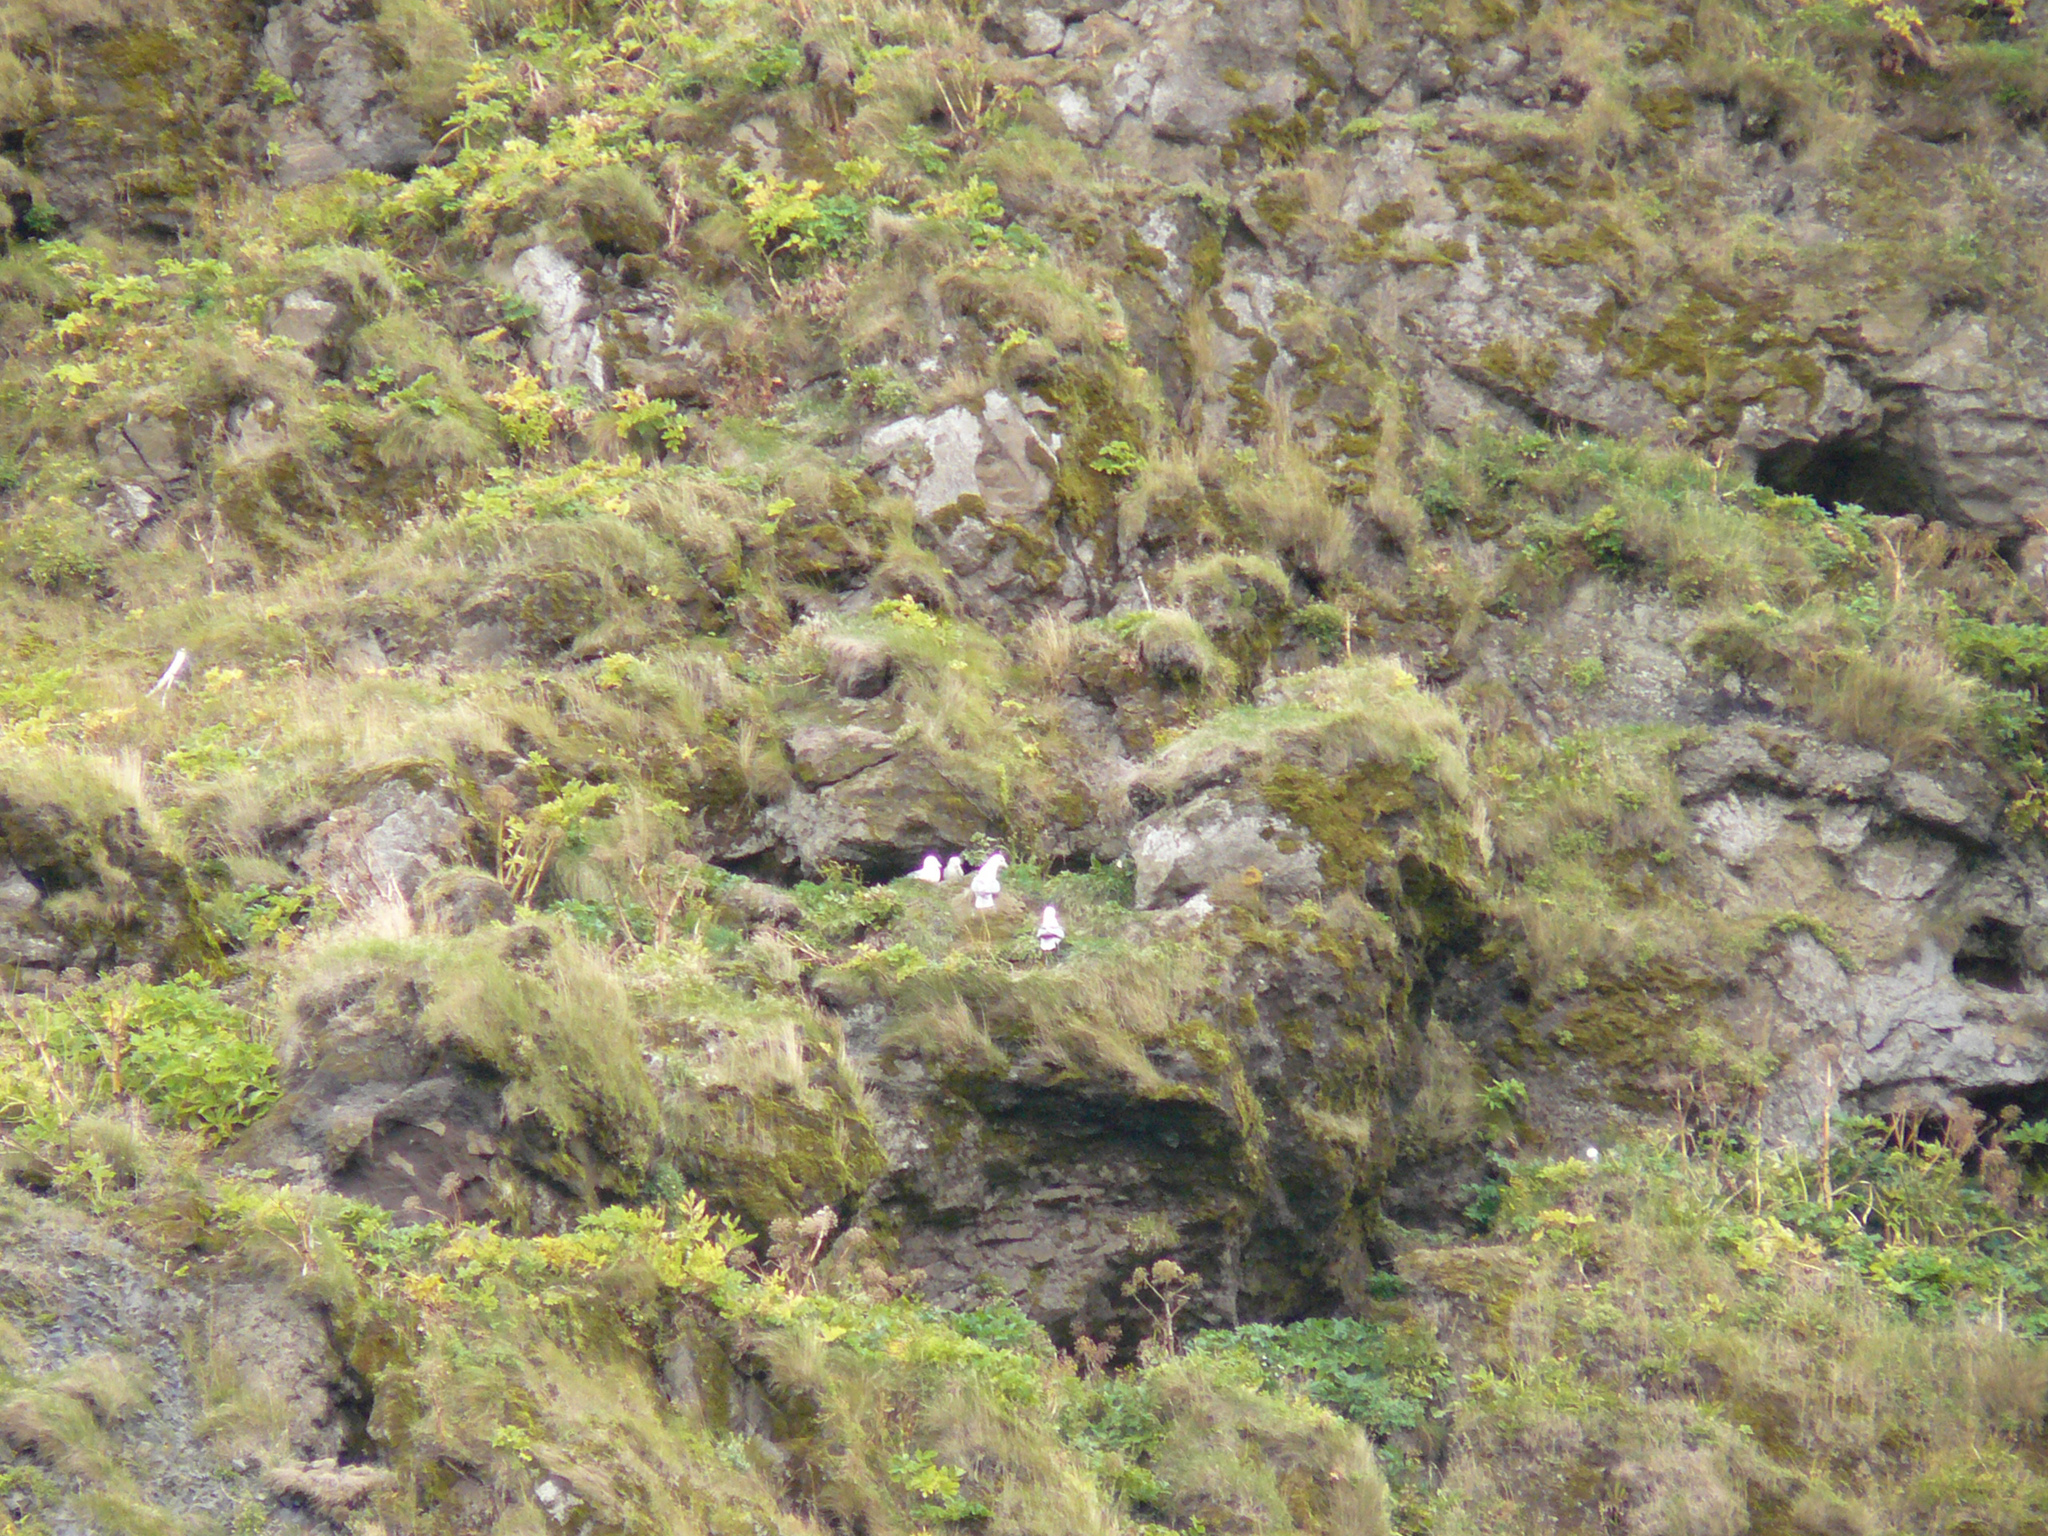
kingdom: Animalia
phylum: Chordata
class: Aves
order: Procellariiformes
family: Procellariidae
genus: Fulmarus
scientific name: Fulmarus glacialis
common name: Northern fulmar
